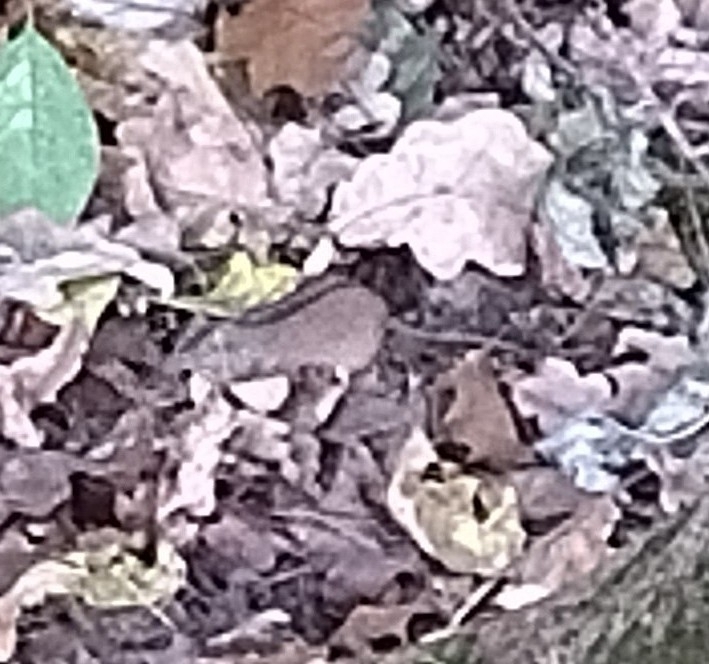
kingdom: Animalia
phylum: Chordata
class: Mammalia
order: Rodentia
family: Muridae
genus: Apodemus
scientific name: Apodemus agrarius
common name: Striped field mouse
